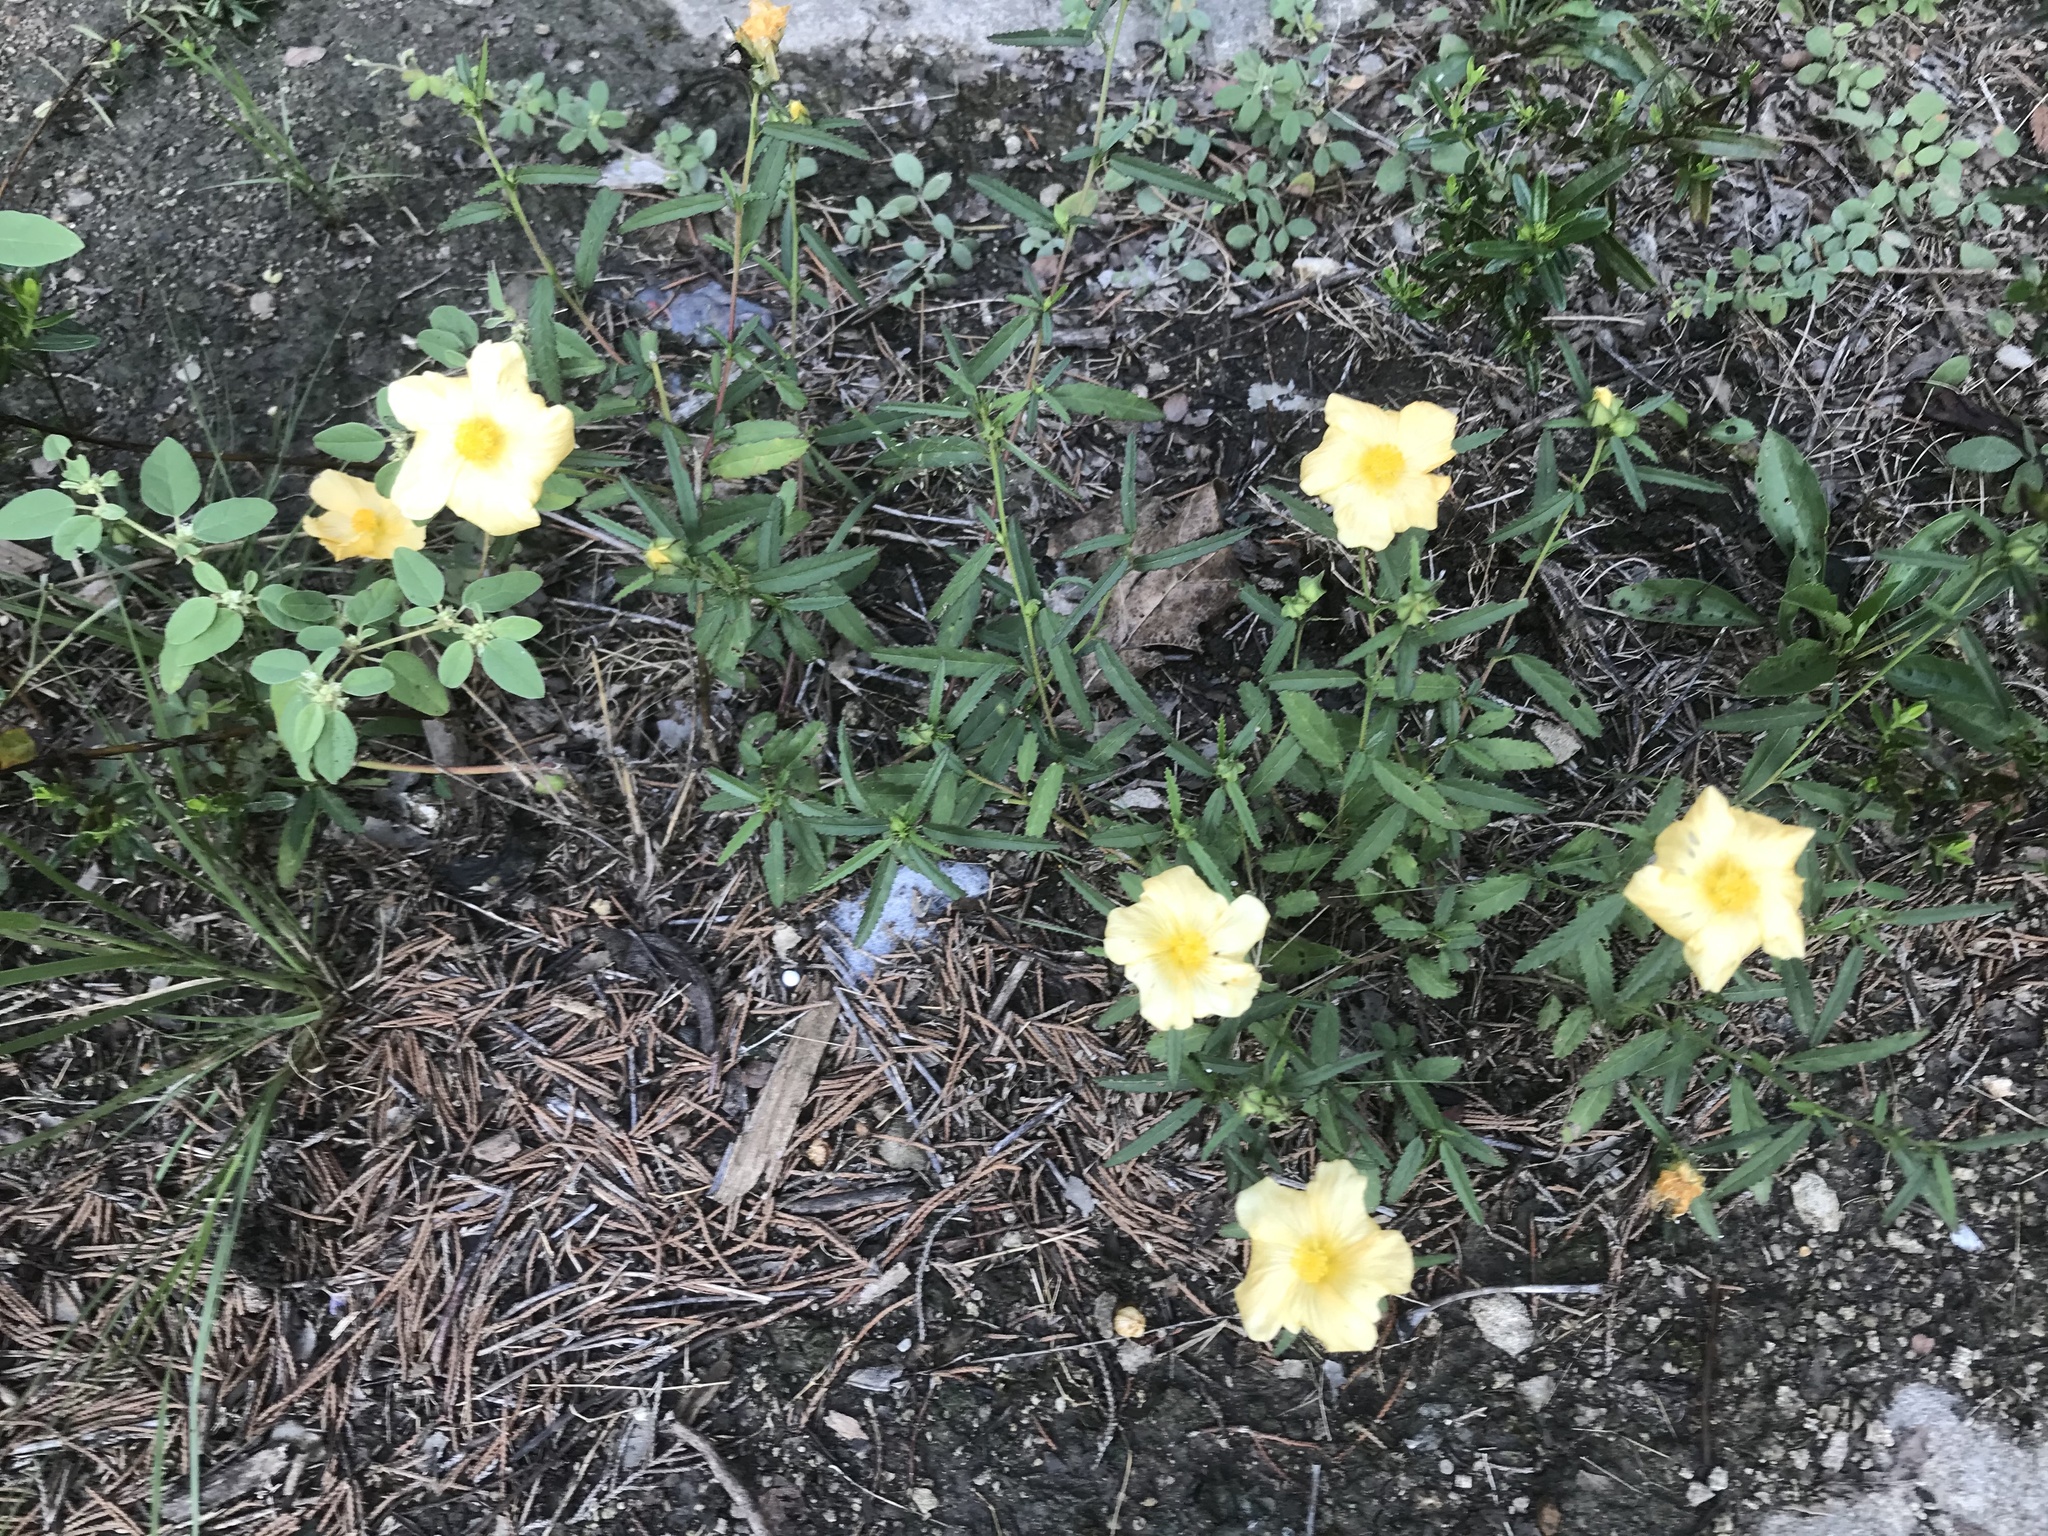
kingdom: Plantae
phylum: Tracheophyta
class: Magnoliopsida
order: Malvales
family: Malvaceae
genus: Sida
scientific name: Sida elliottii
